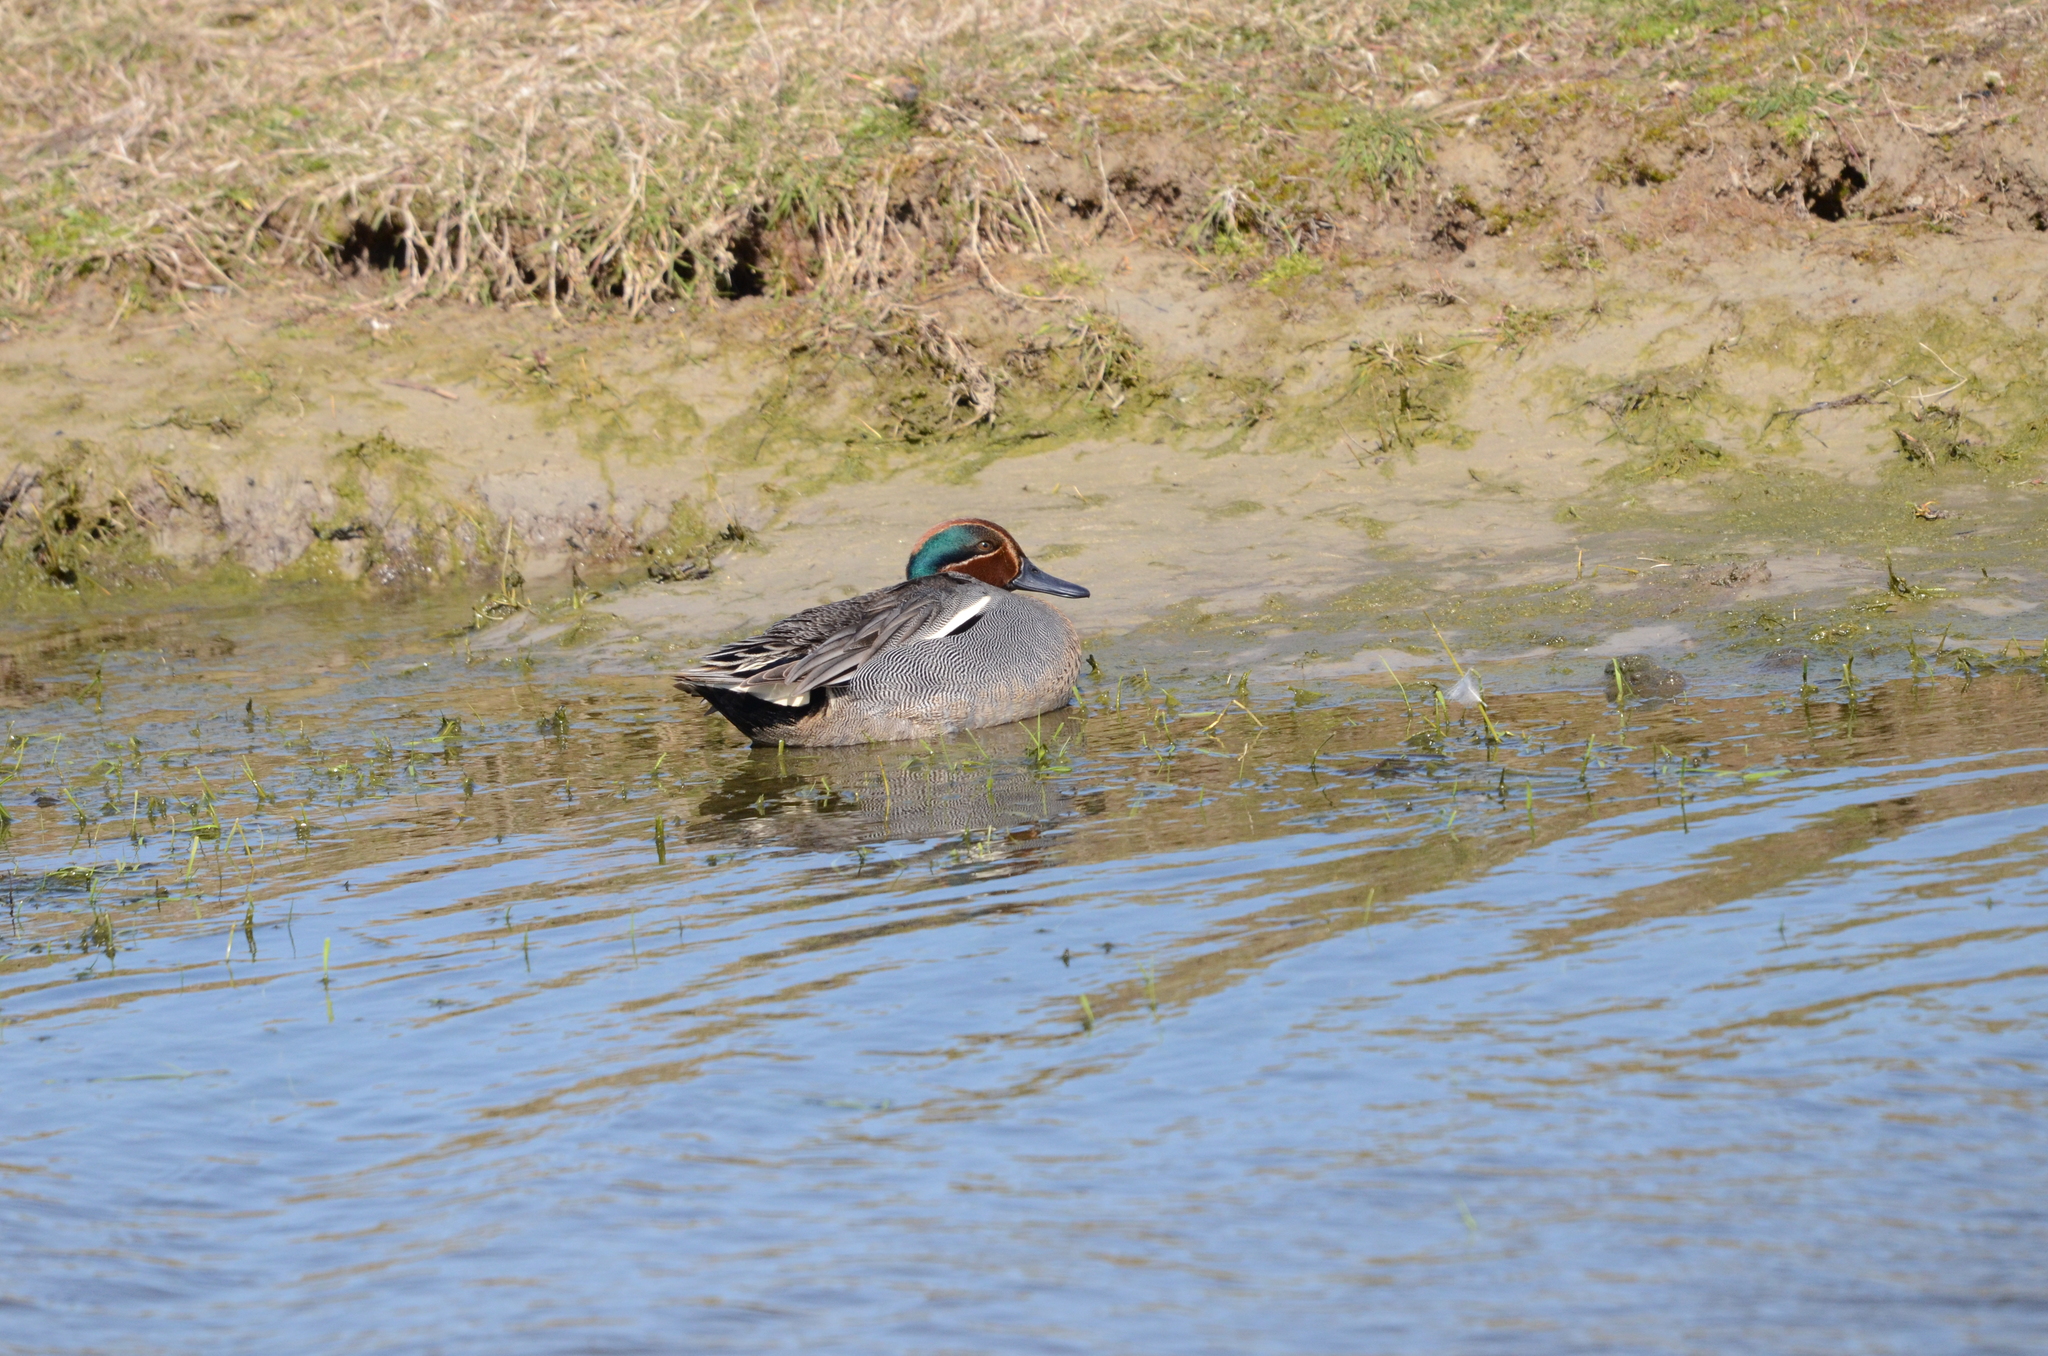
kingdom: Animalia
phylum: Chordata
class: Aves
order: Anseriformes
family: Anatidae
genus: Anas
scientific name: Anas crecca
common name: Eurasian teal
